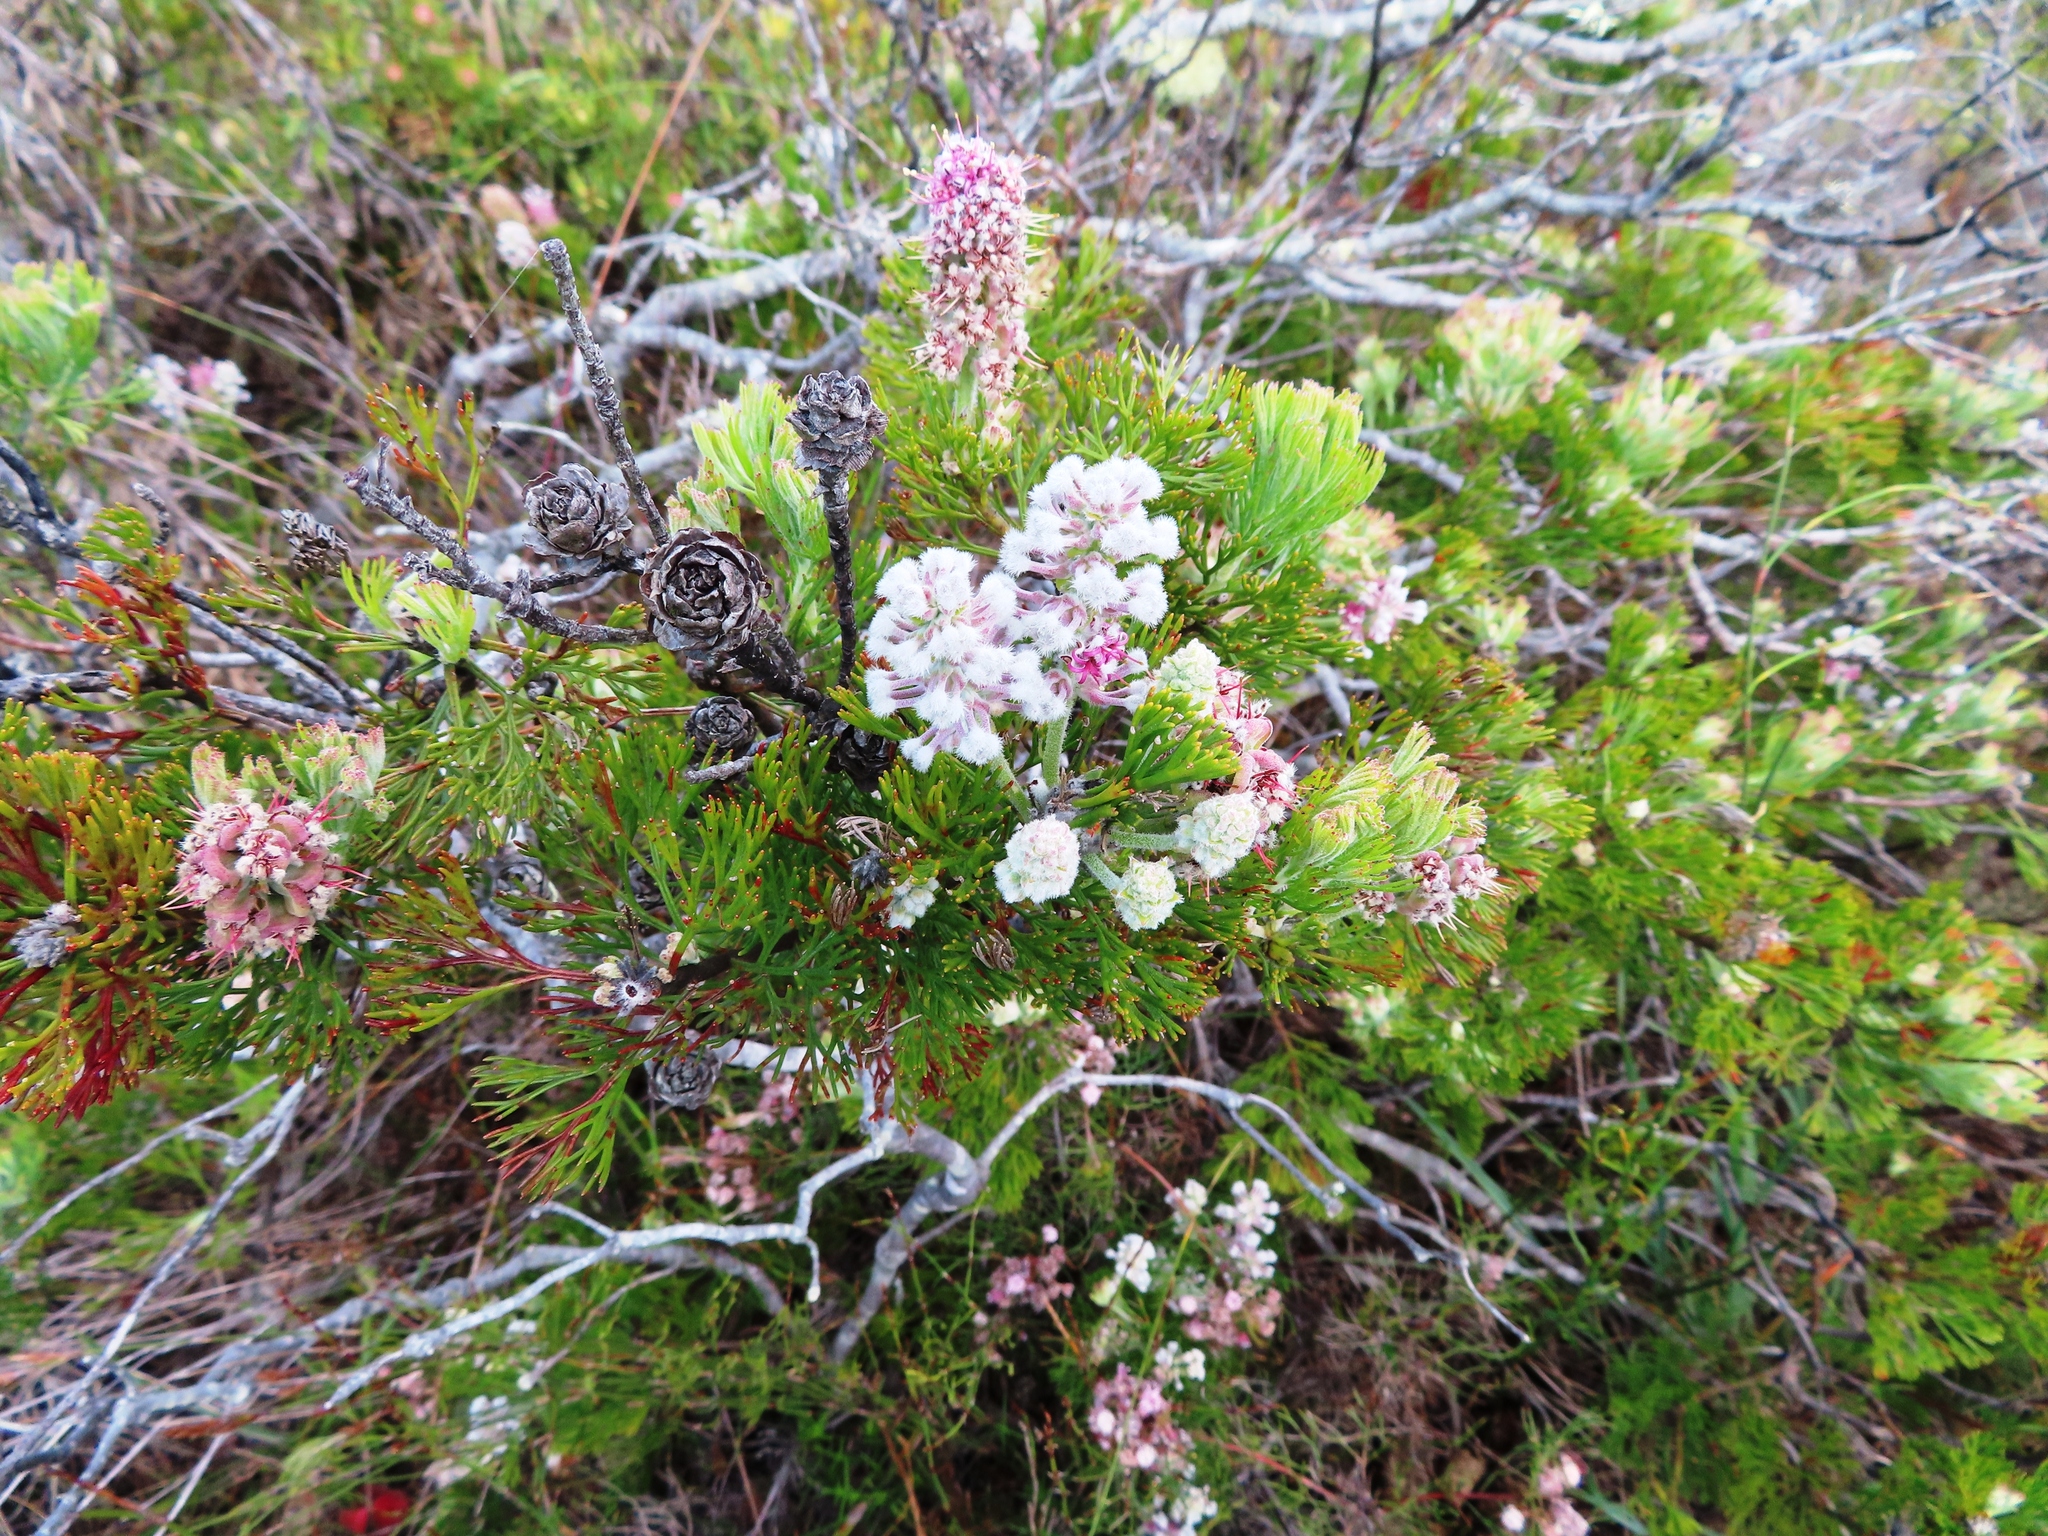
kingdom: Plantae
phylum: Tracheophyta
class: Magnoliopsida
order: Proteales
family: Proteaceae
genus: Paranomus
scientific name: Paranomus abrotanifolius
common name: Bredasdorp sceptre
